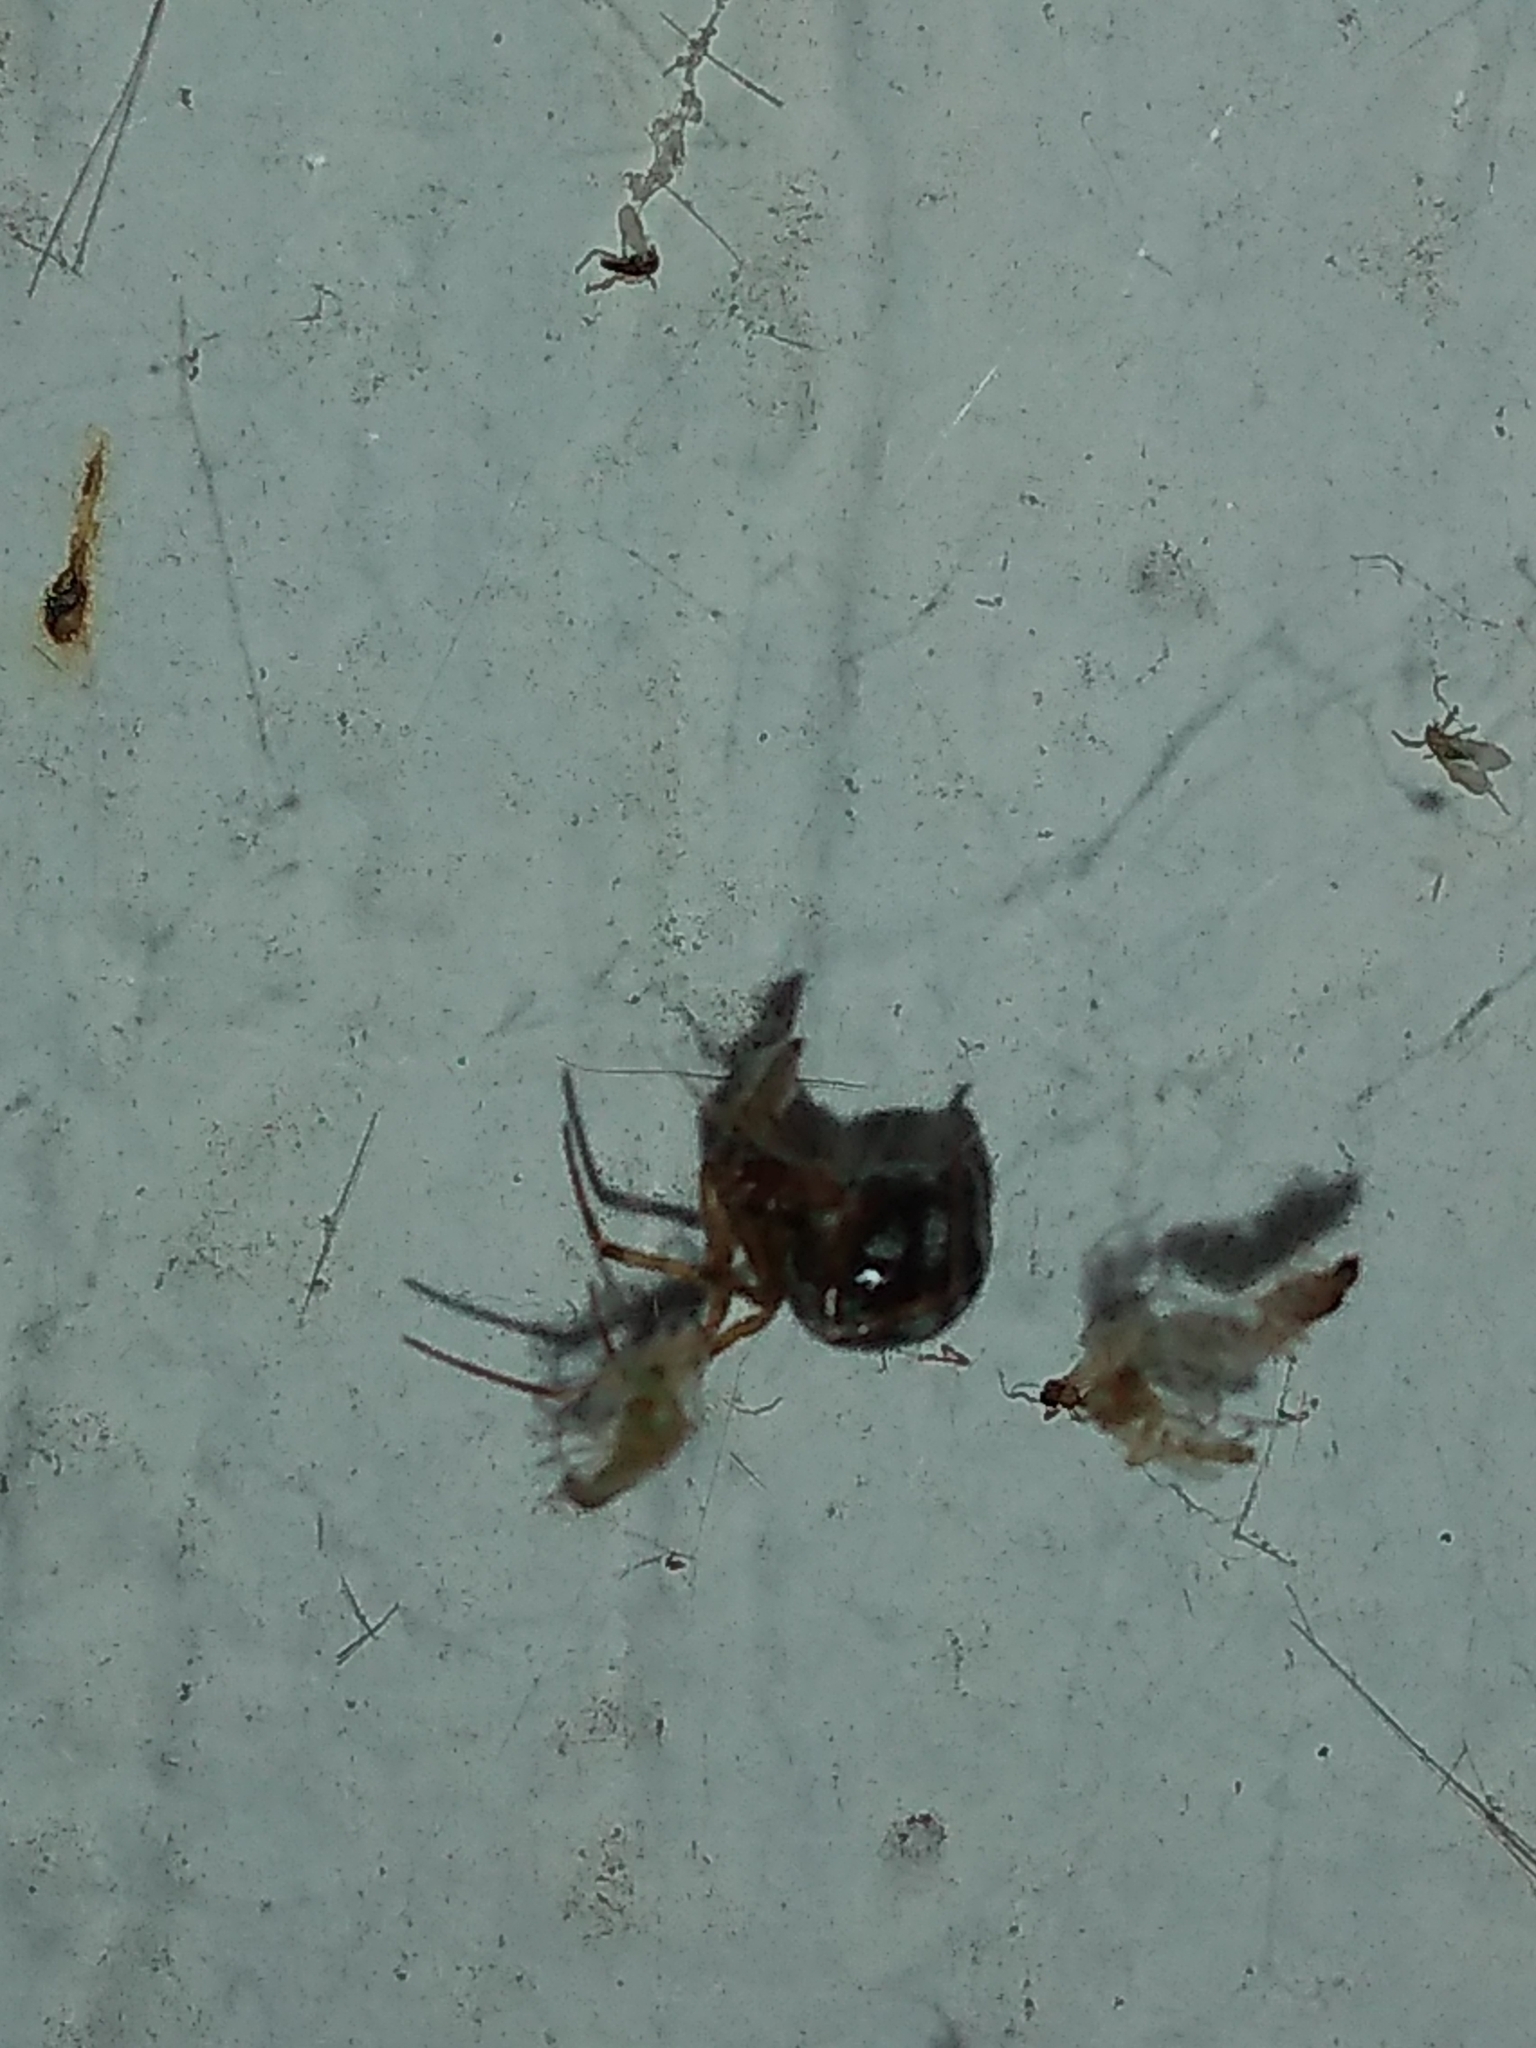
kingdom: Animalia
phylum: Arthropoda
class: Arachnida
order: Araneae
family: Theridiidae
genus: Steatoda
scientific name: Steatoda triangulosa
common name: Triangulate bud spider
